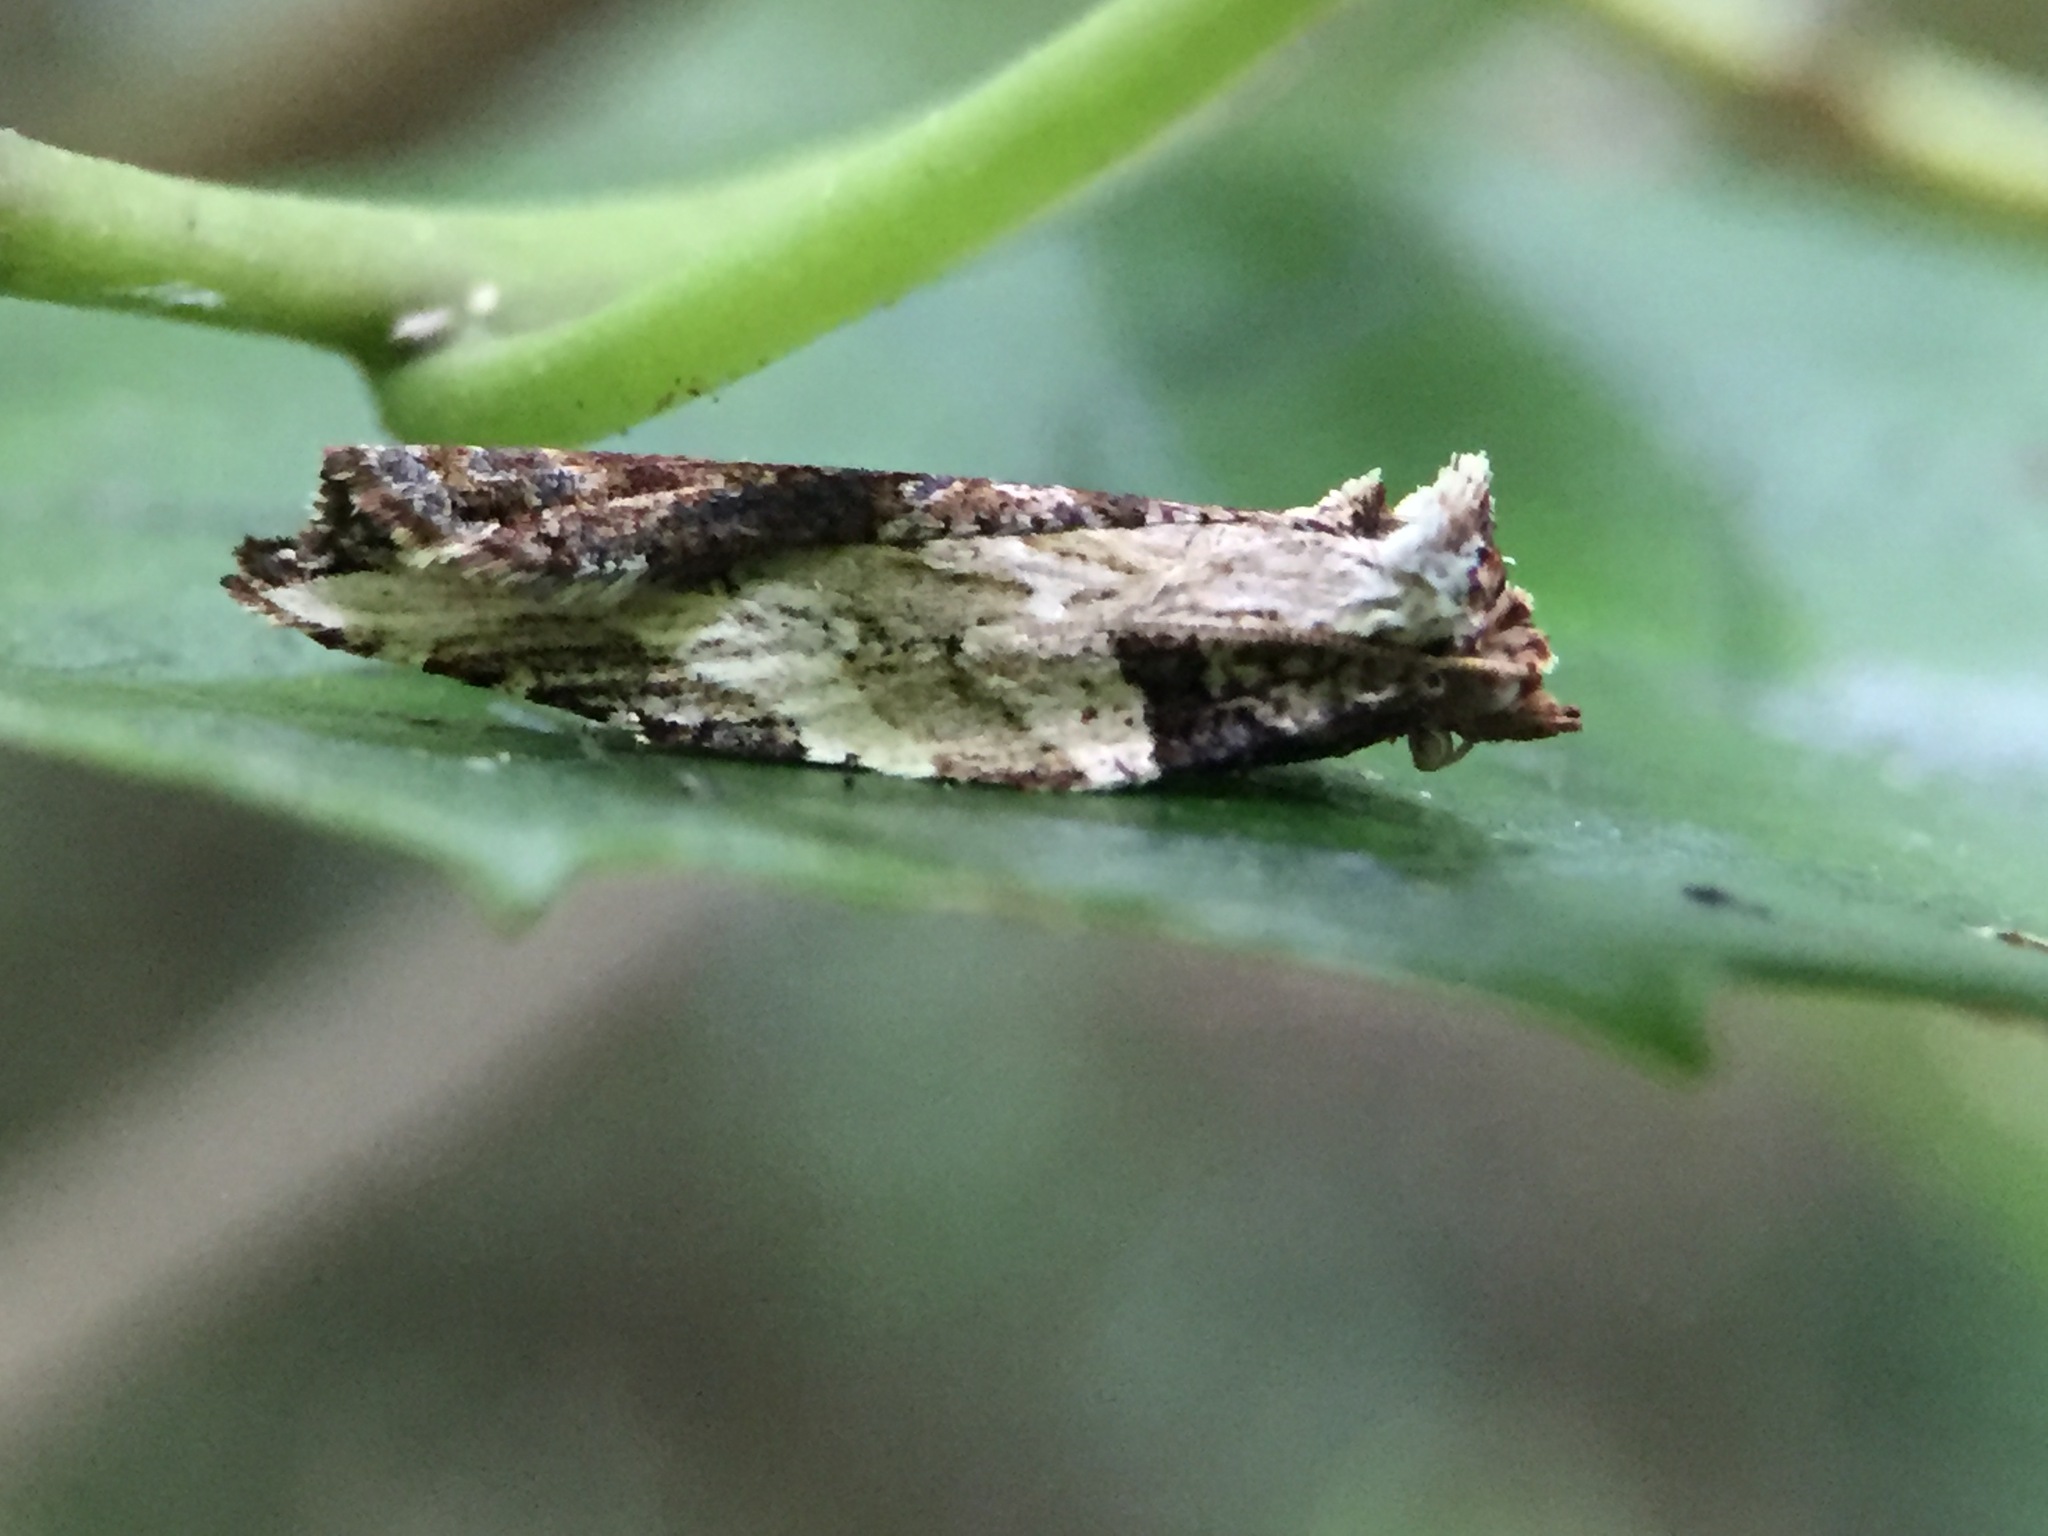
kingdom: Animalia
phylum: Arthropoda
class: Insecta
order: Lepidoptera
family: Tortricidae
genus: Epalxiphora
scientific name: Epalxiphora axenana
